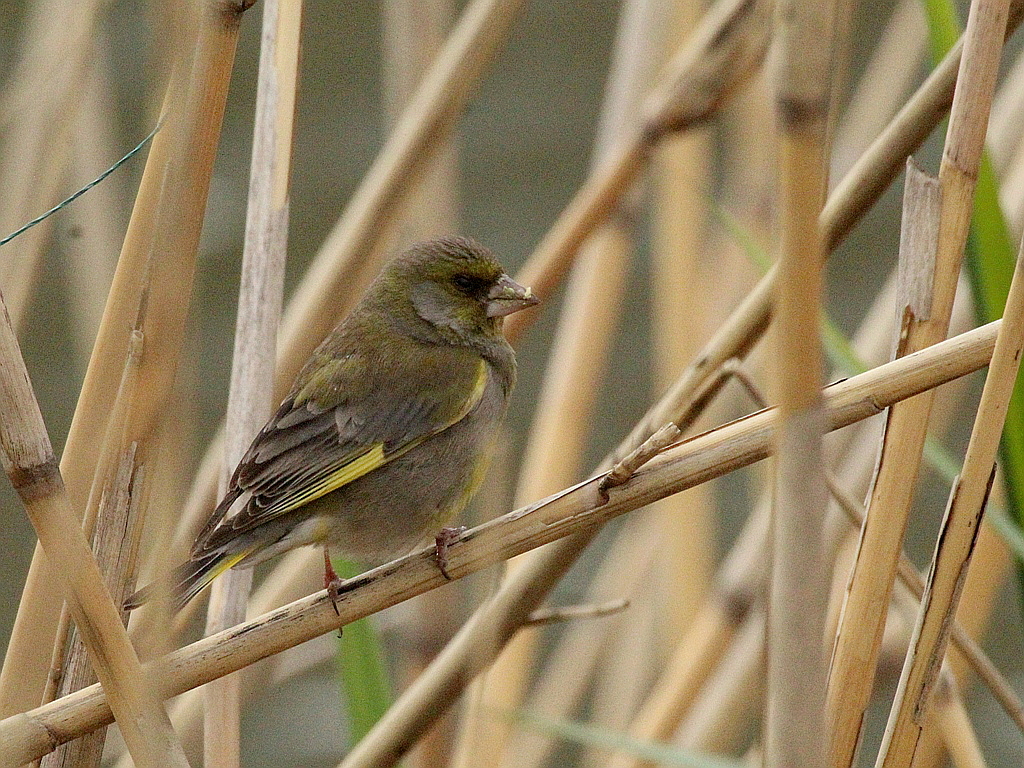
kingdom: Plantae
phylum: Tracheophyta
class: Liliopsida
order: Poales
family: Poaceae
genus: Chloris
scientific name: Chloris chloris
